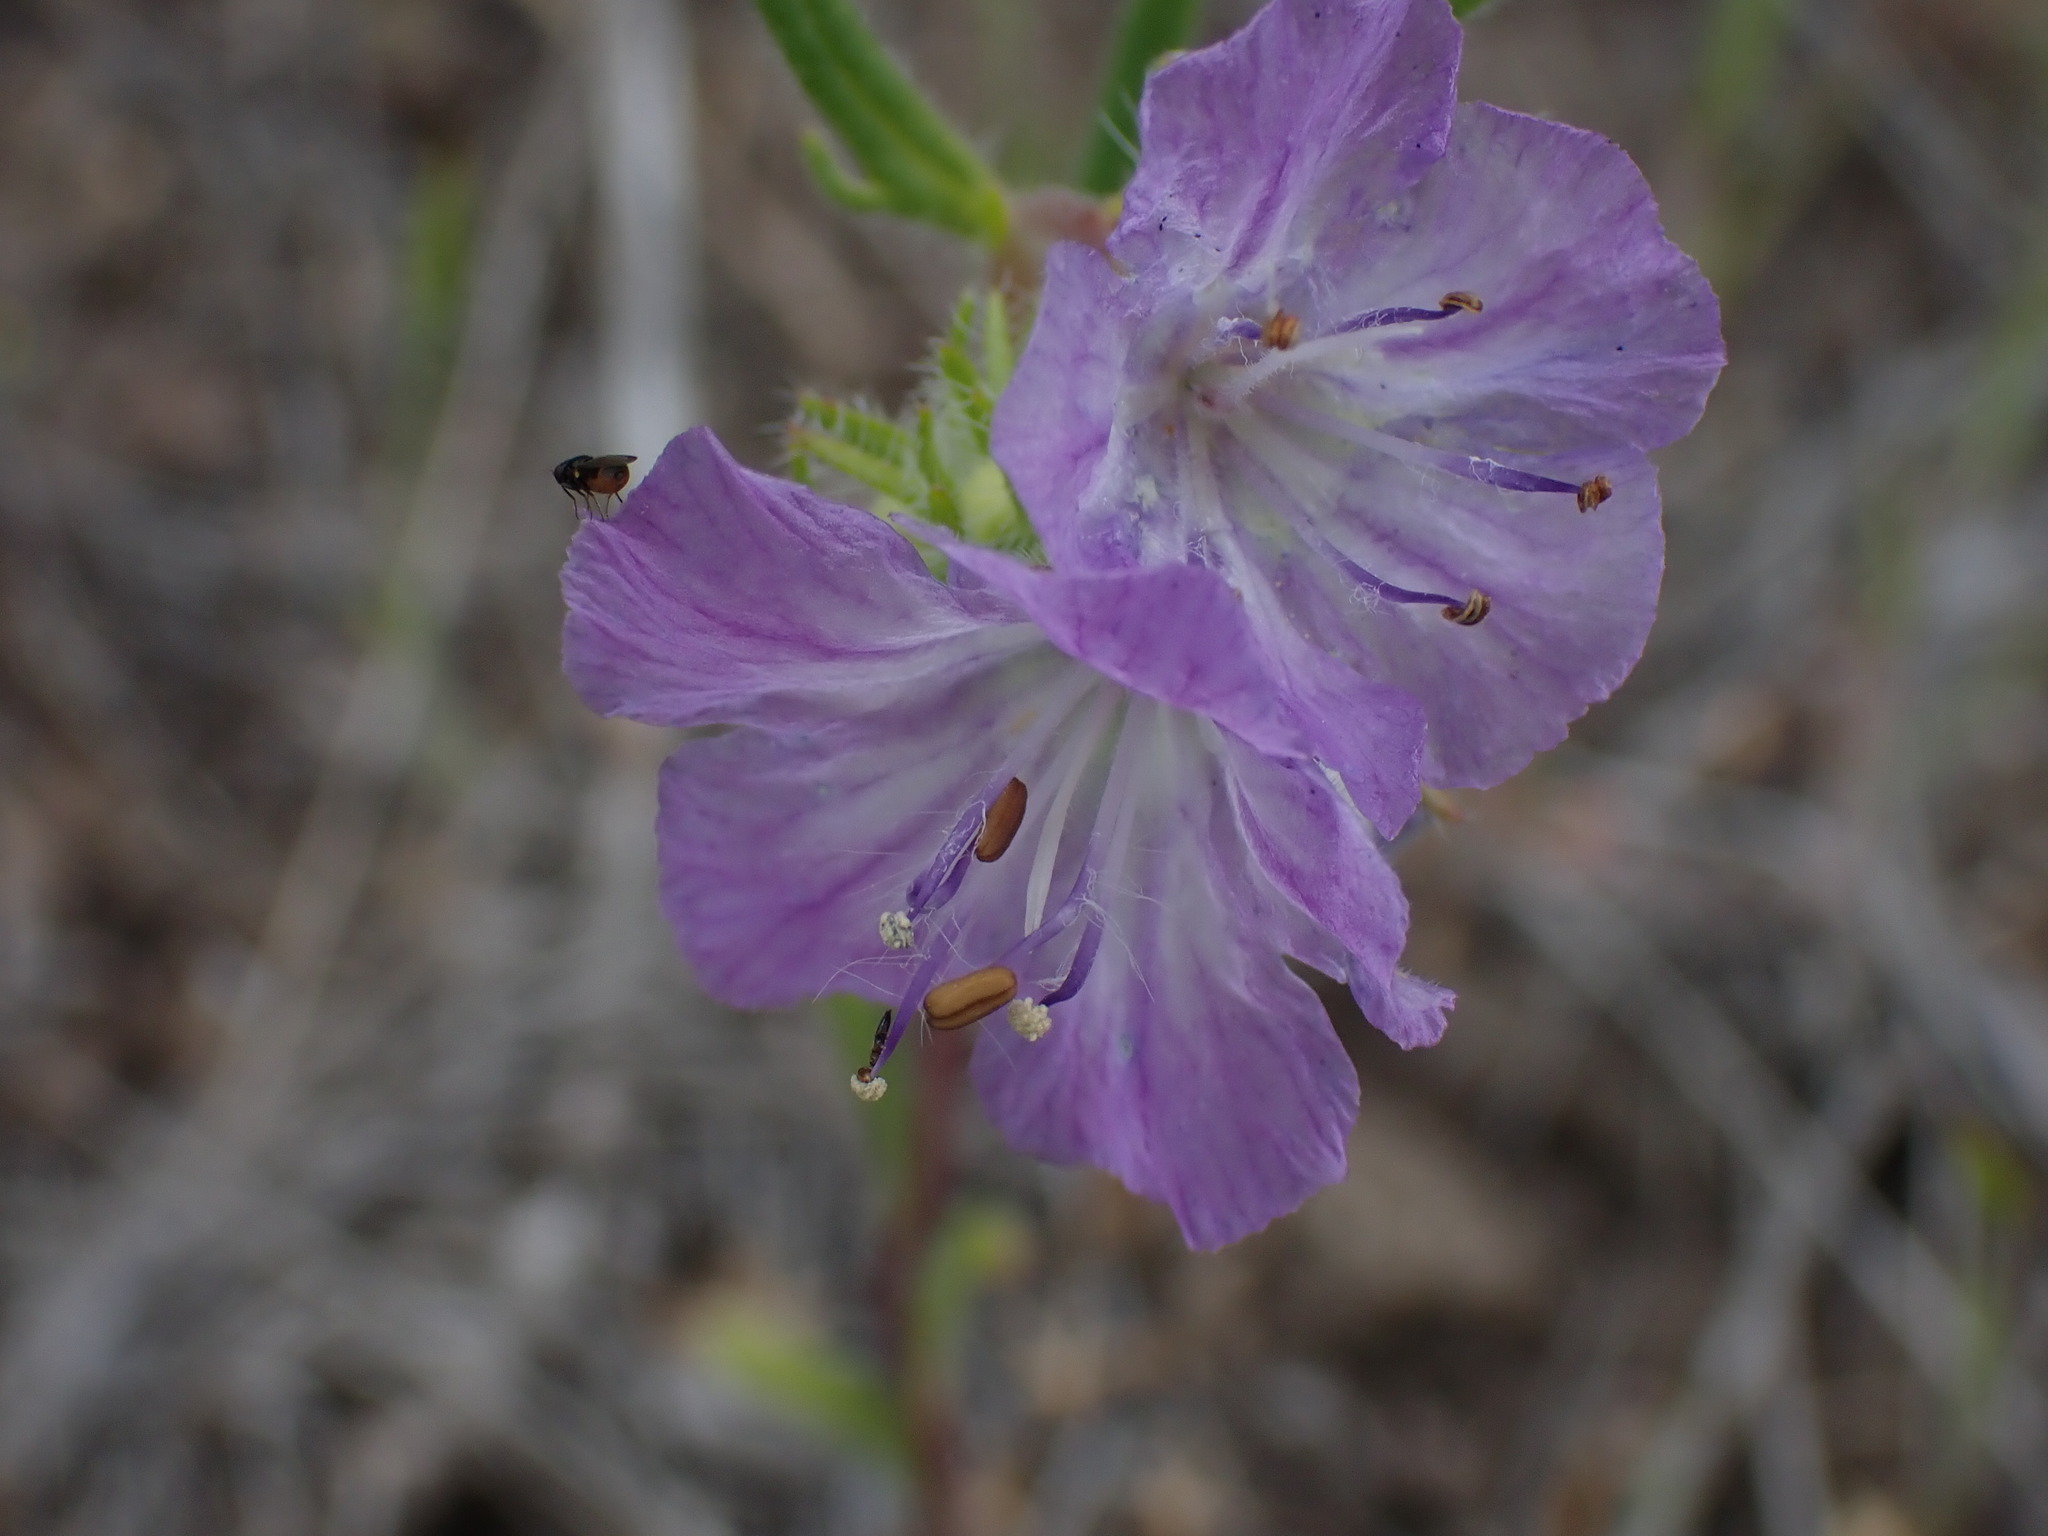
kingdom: Plantae
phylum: Tracheophyta
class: Magnoliopsida
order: Boraginales
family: Hydrophyllaceae
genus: Phacelia
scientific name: Phacelia linearis
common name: Linear-leaved phacelia
